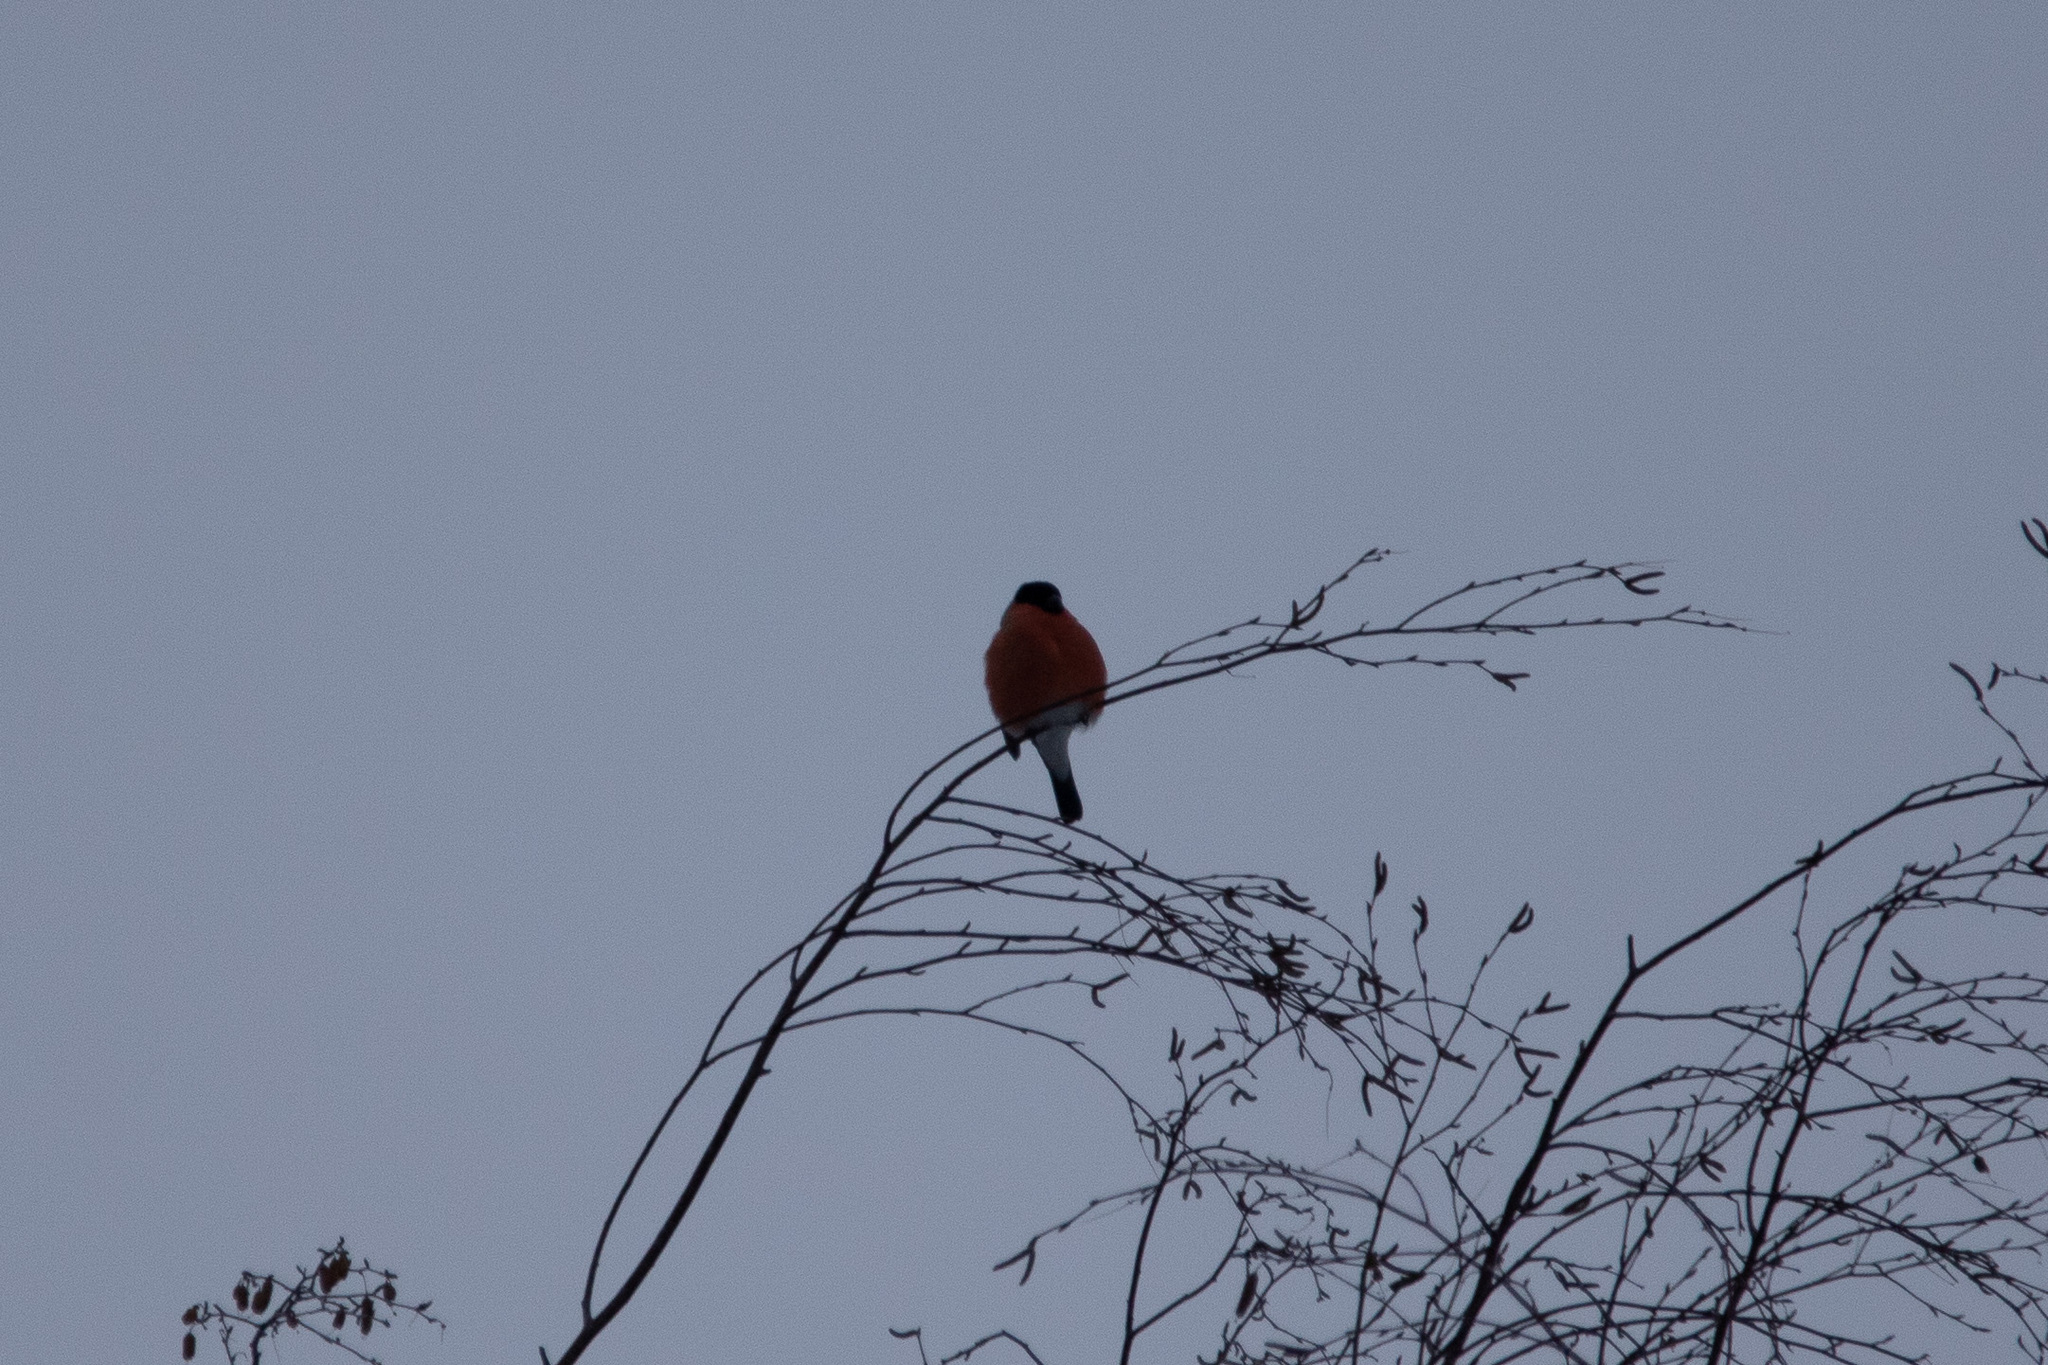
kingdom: Animalia
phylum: Chordata
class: Aves
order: Passeriformes
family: Fringillidae
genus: Pyrrhula
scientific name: Pyrrhula pyrrhula
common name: Eurasian bullfinch
